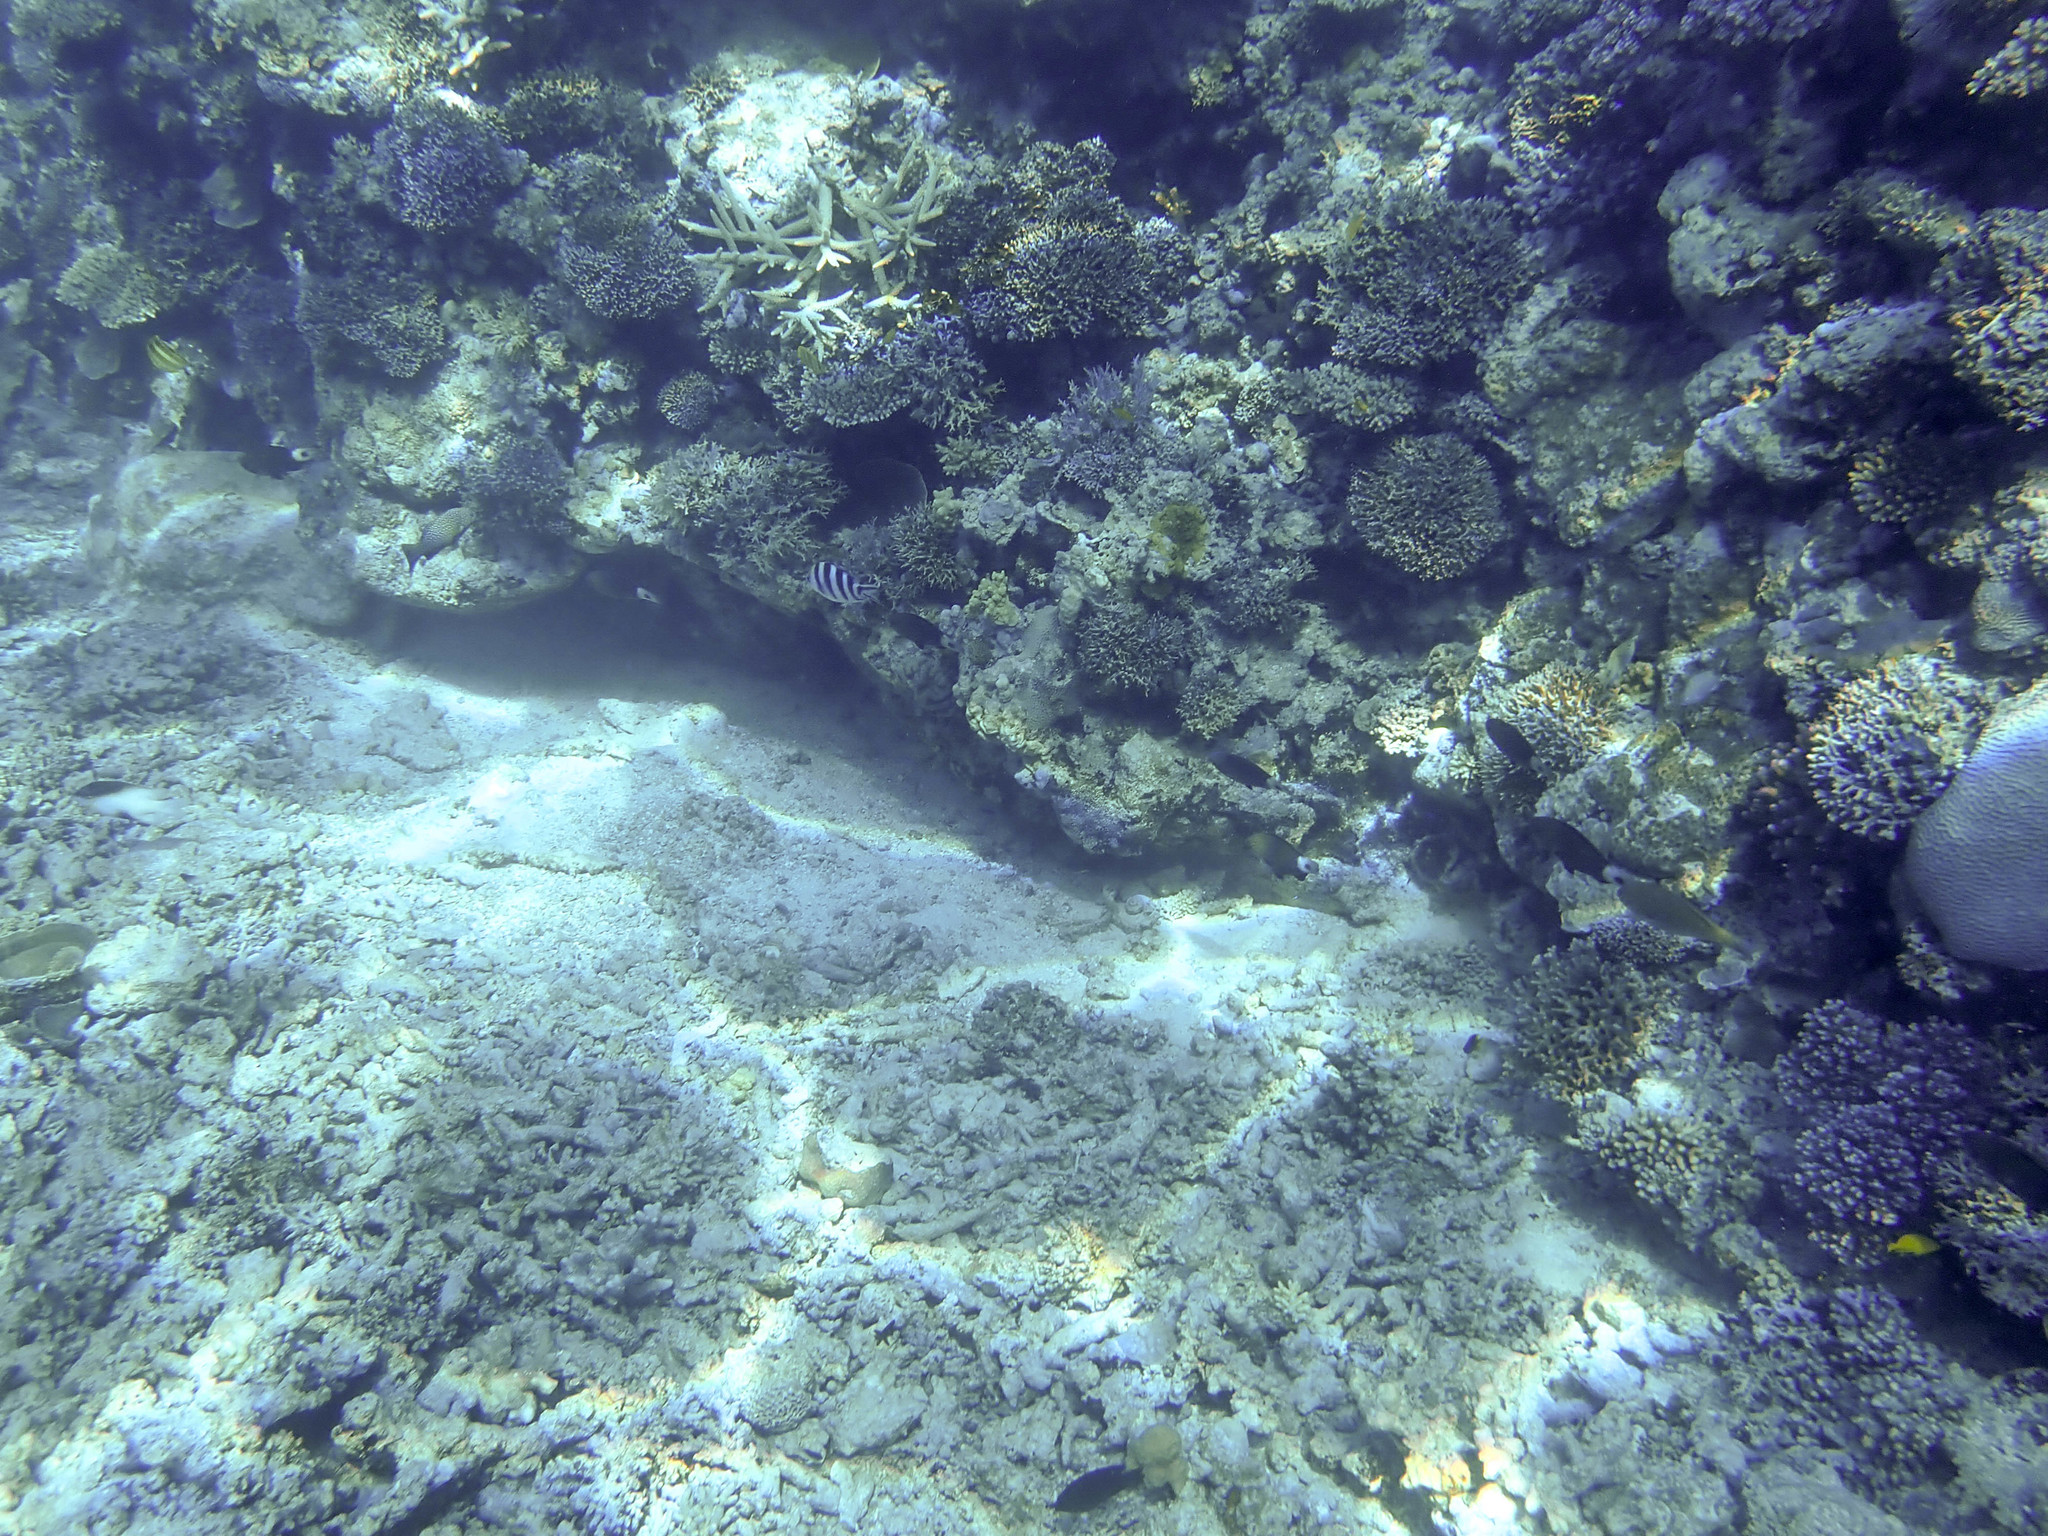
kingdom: Animalia
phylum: Chordata
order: Perciformes
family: Scaridae
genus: Chlorurus
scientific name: Chlorurus spilurus
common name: Bullethead parrotfish
